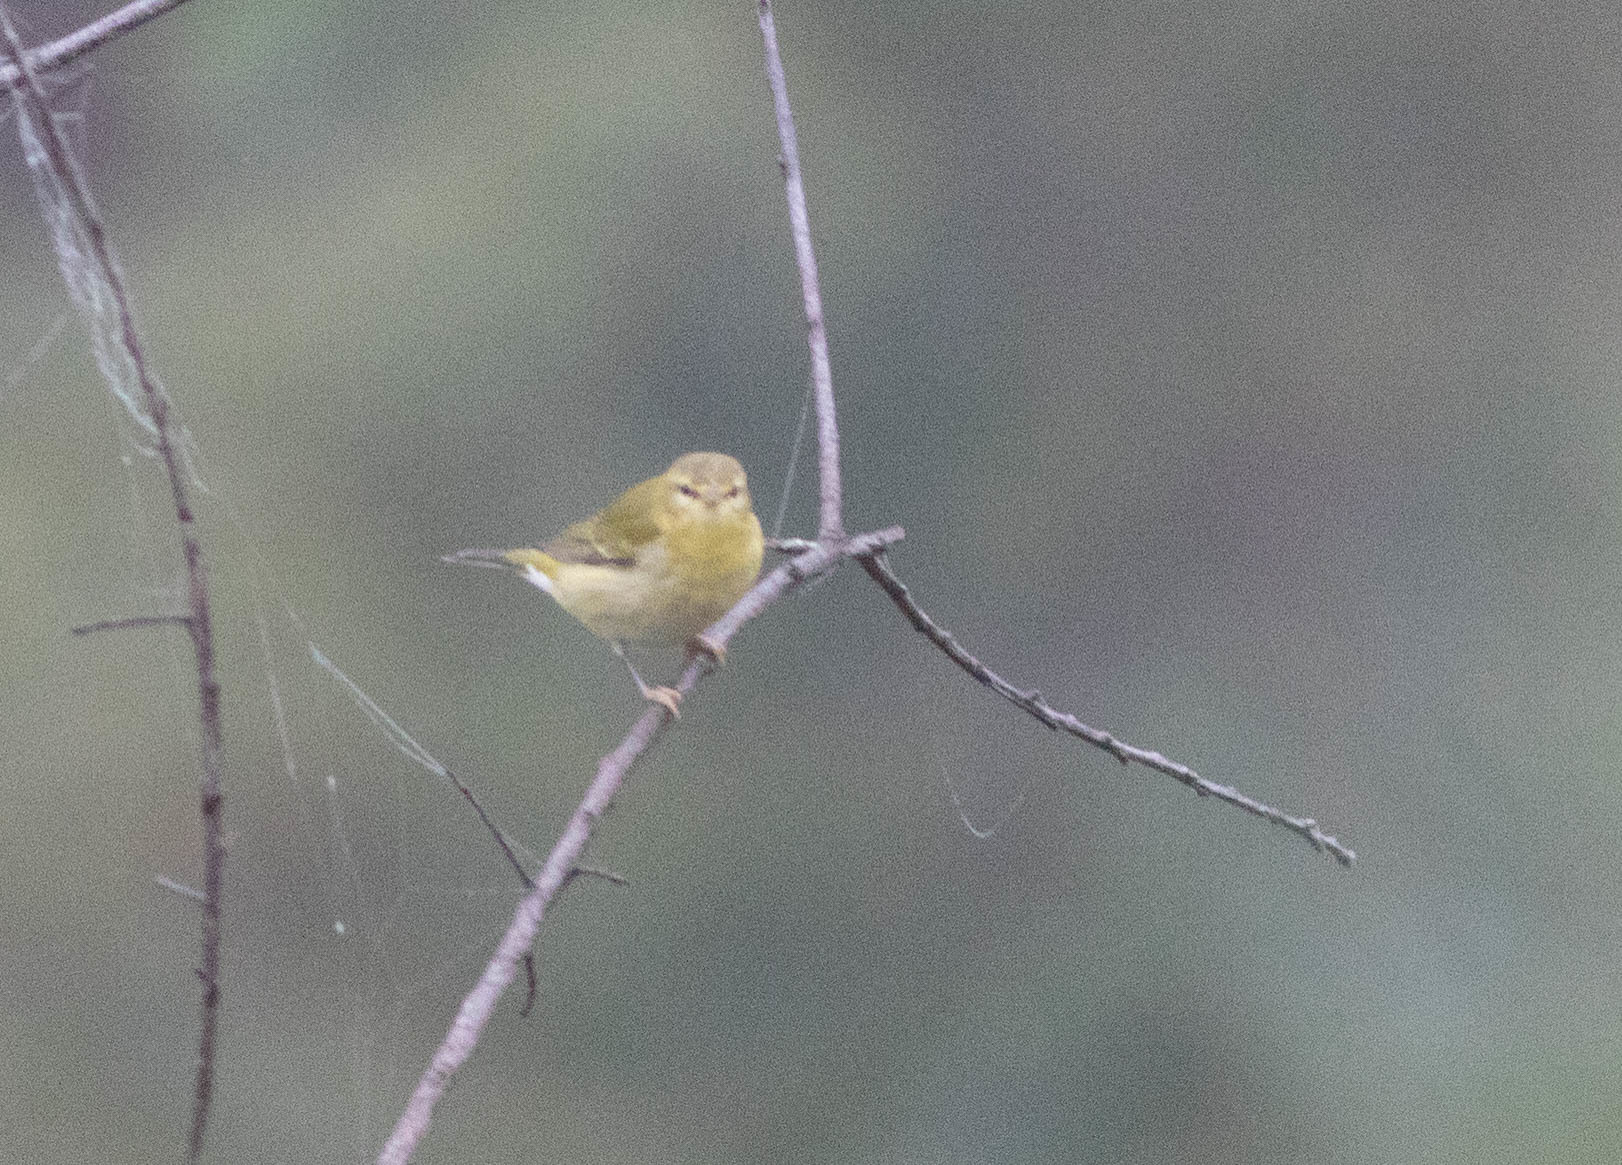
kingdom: Animalia
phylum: Chordata
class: Aves
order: Passeriformes
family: Parulidae
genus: Leiothlypis
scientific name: Leiothlypis peregrina
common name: Tennessee warbler
